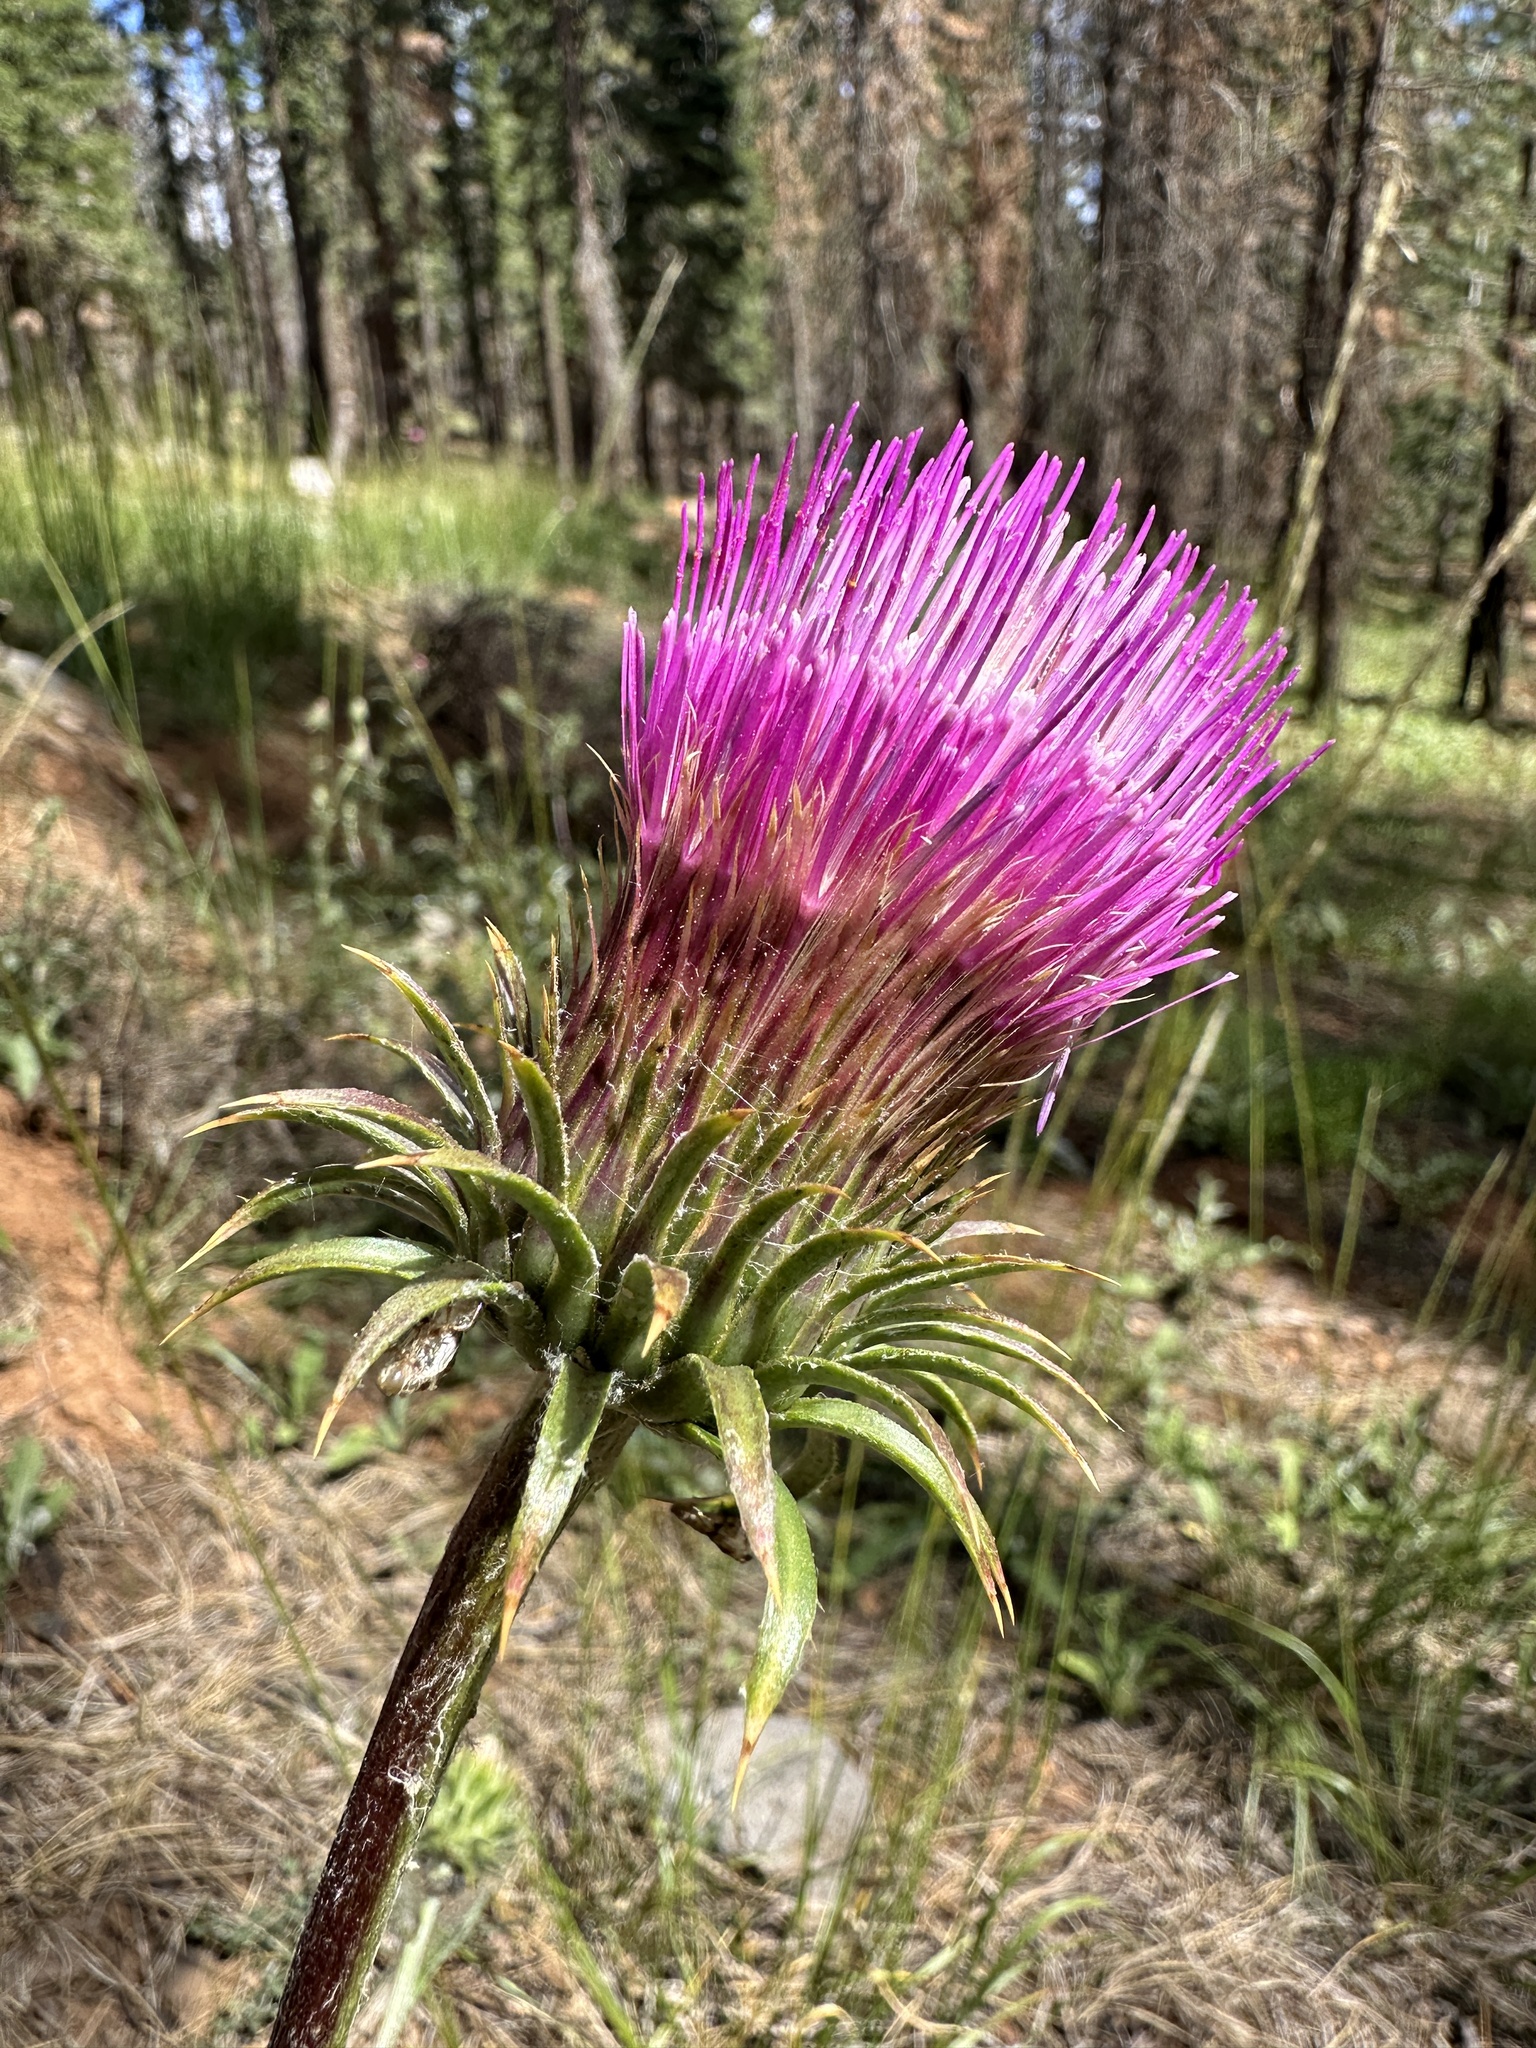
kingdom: Plantae
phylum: Tracheophyta
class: Magnoliopsida
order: Asterales
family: Asteraceae
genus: Cirsium
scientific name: Cirsium andersonii
